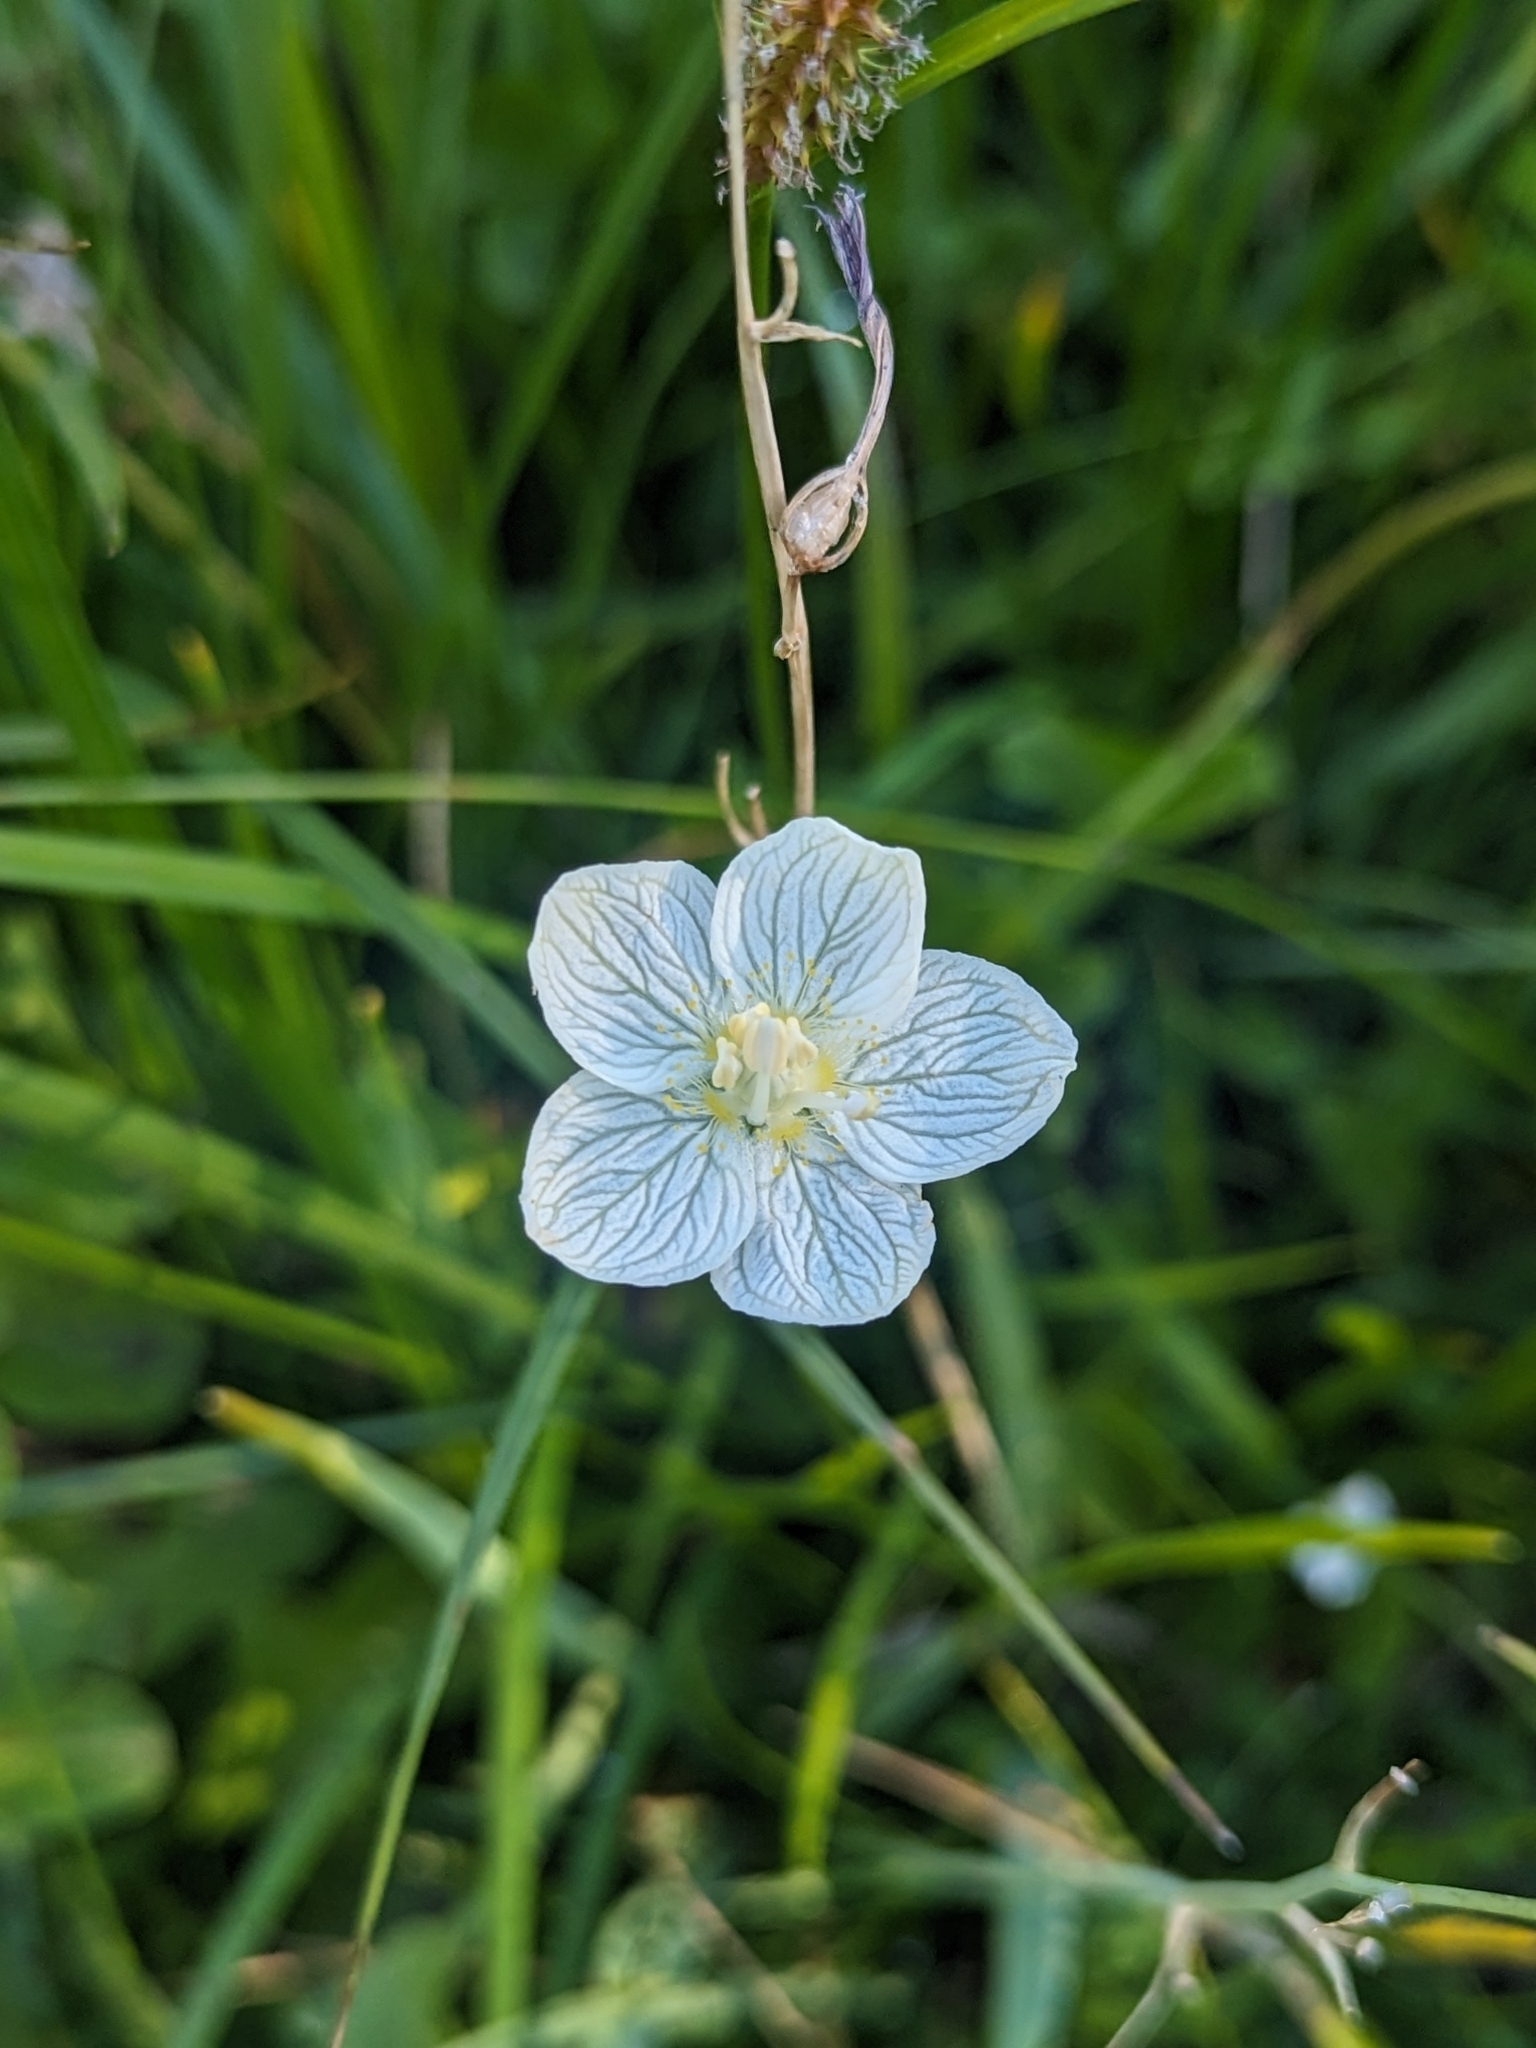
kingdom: Plantae
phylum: Tracheophyta
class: Magnoliopsida
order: Celastrales
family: Parnassiaceae
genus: Parnassia
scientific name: Parnassia palustris
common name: Grass-of-parnassus
